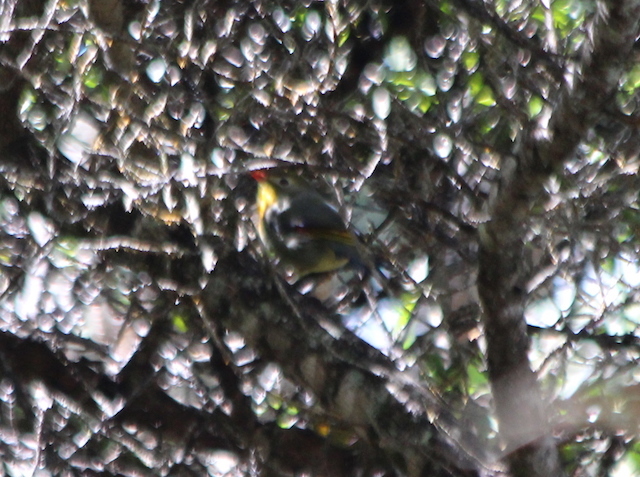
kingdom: Animalia
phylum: Chordata
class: Aves
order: Passeriformes
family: Leiothrichidae
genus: Leiothrix
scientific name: Leiothrix lutea
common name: Red-billed leiothrix
